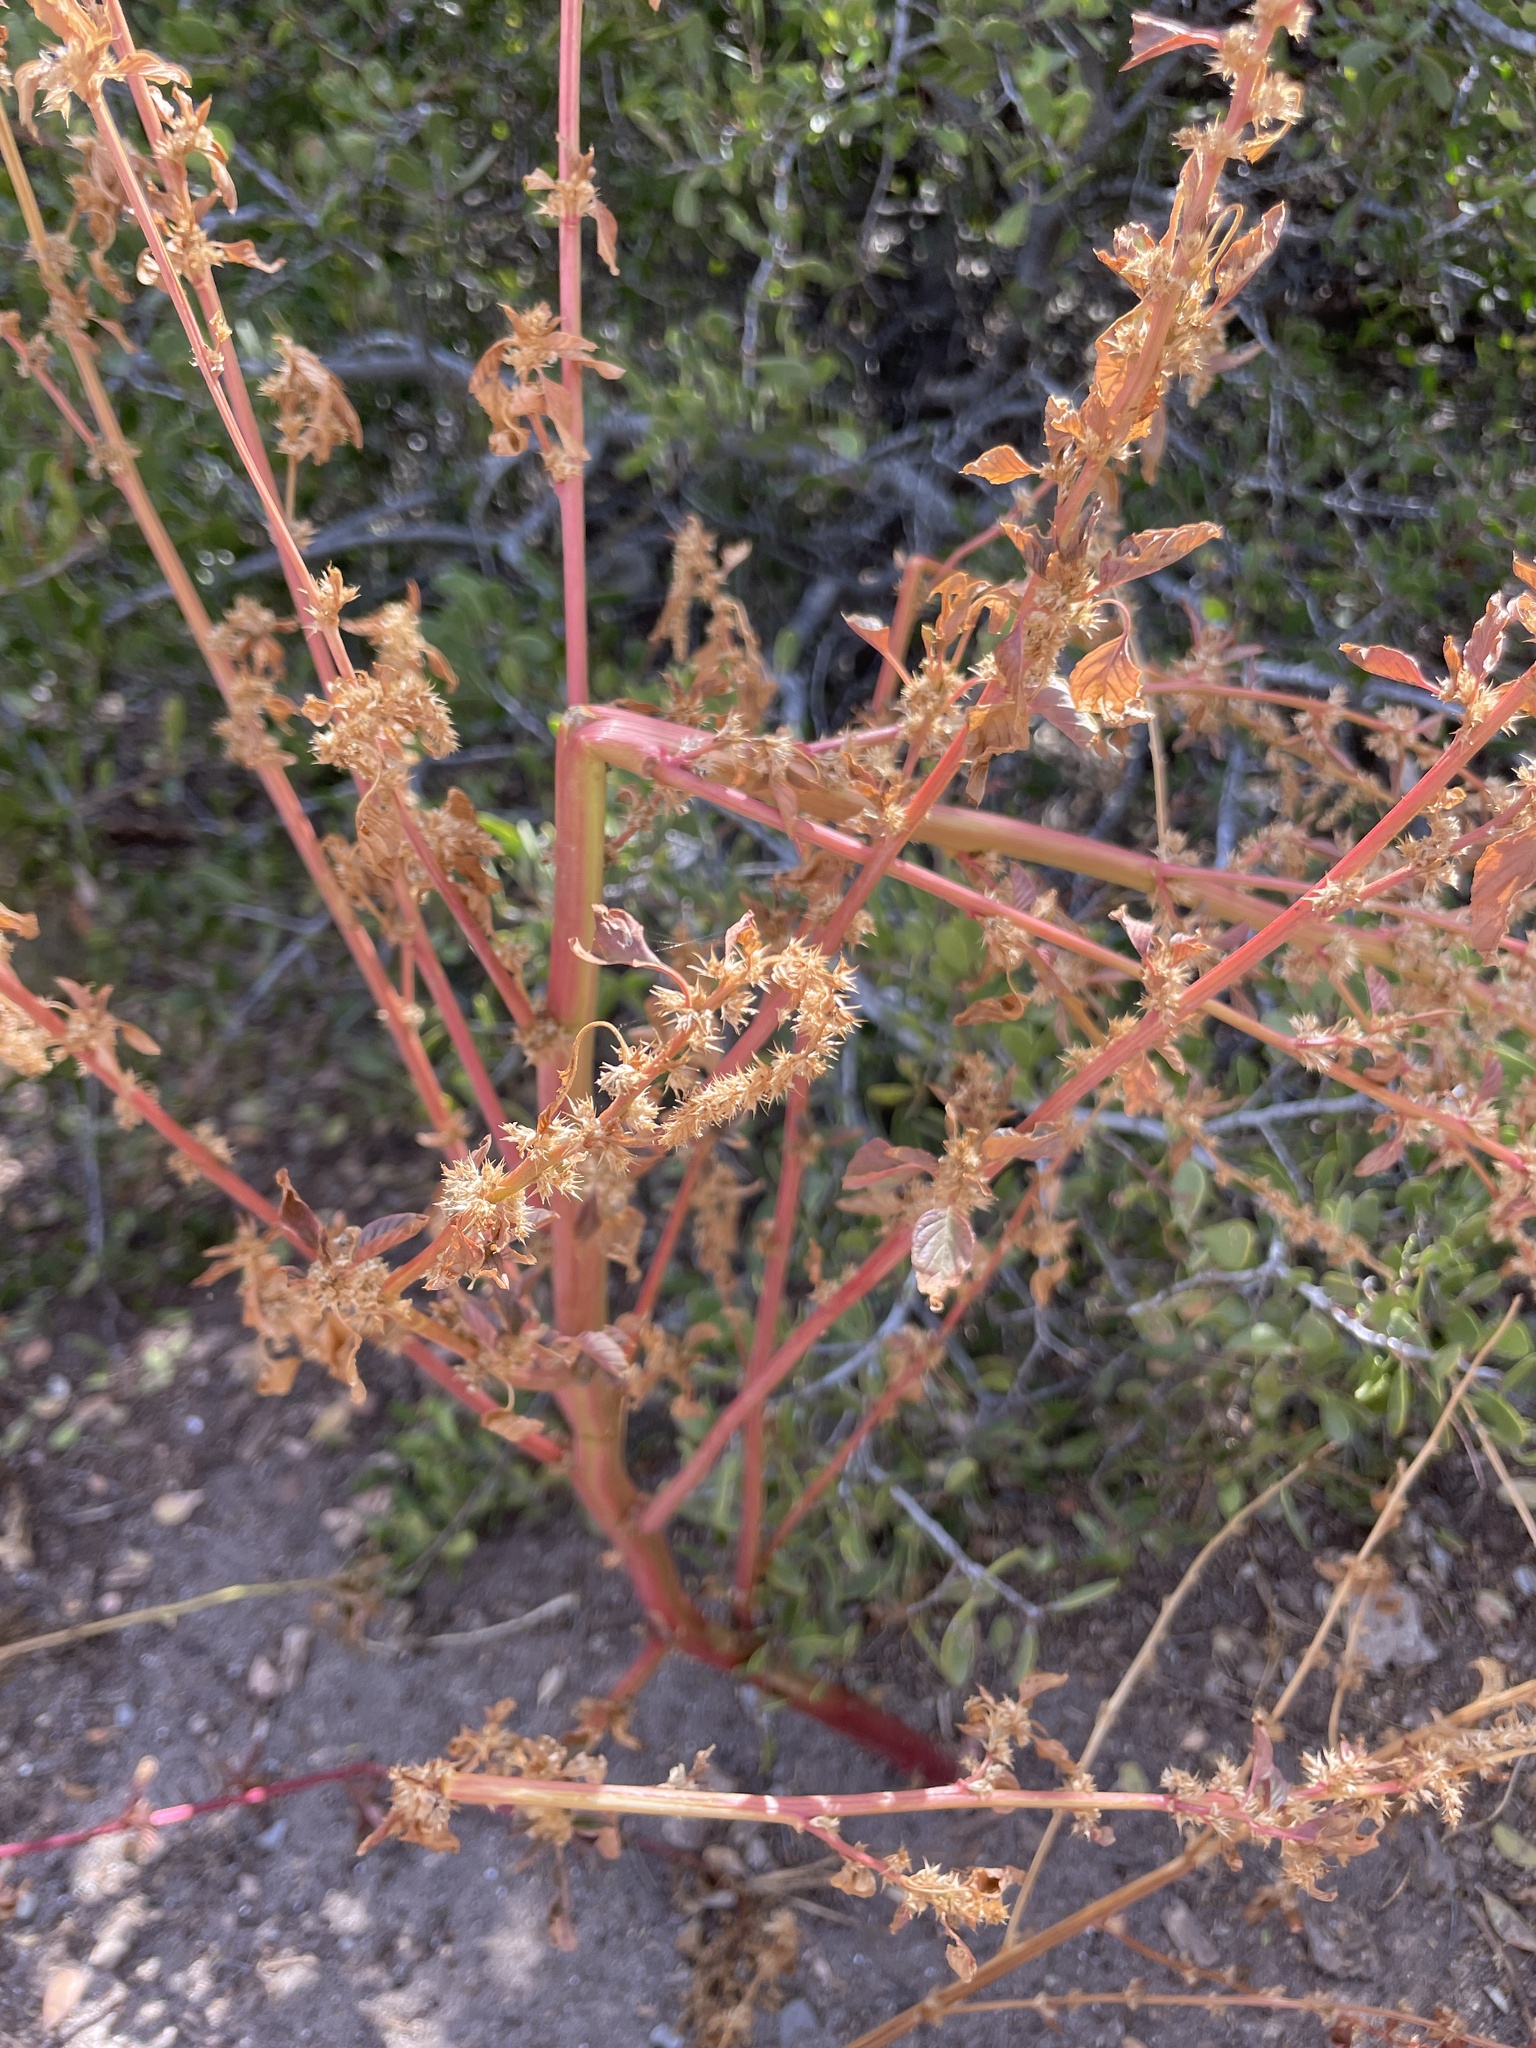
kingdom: Plantae
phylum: Tracheophyta
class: Magnoliopsida
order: Caryophyllales
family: Amaranthaceae
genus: Amaranthus
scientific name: Amaranthus watsonii
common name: Watson's amaranth
